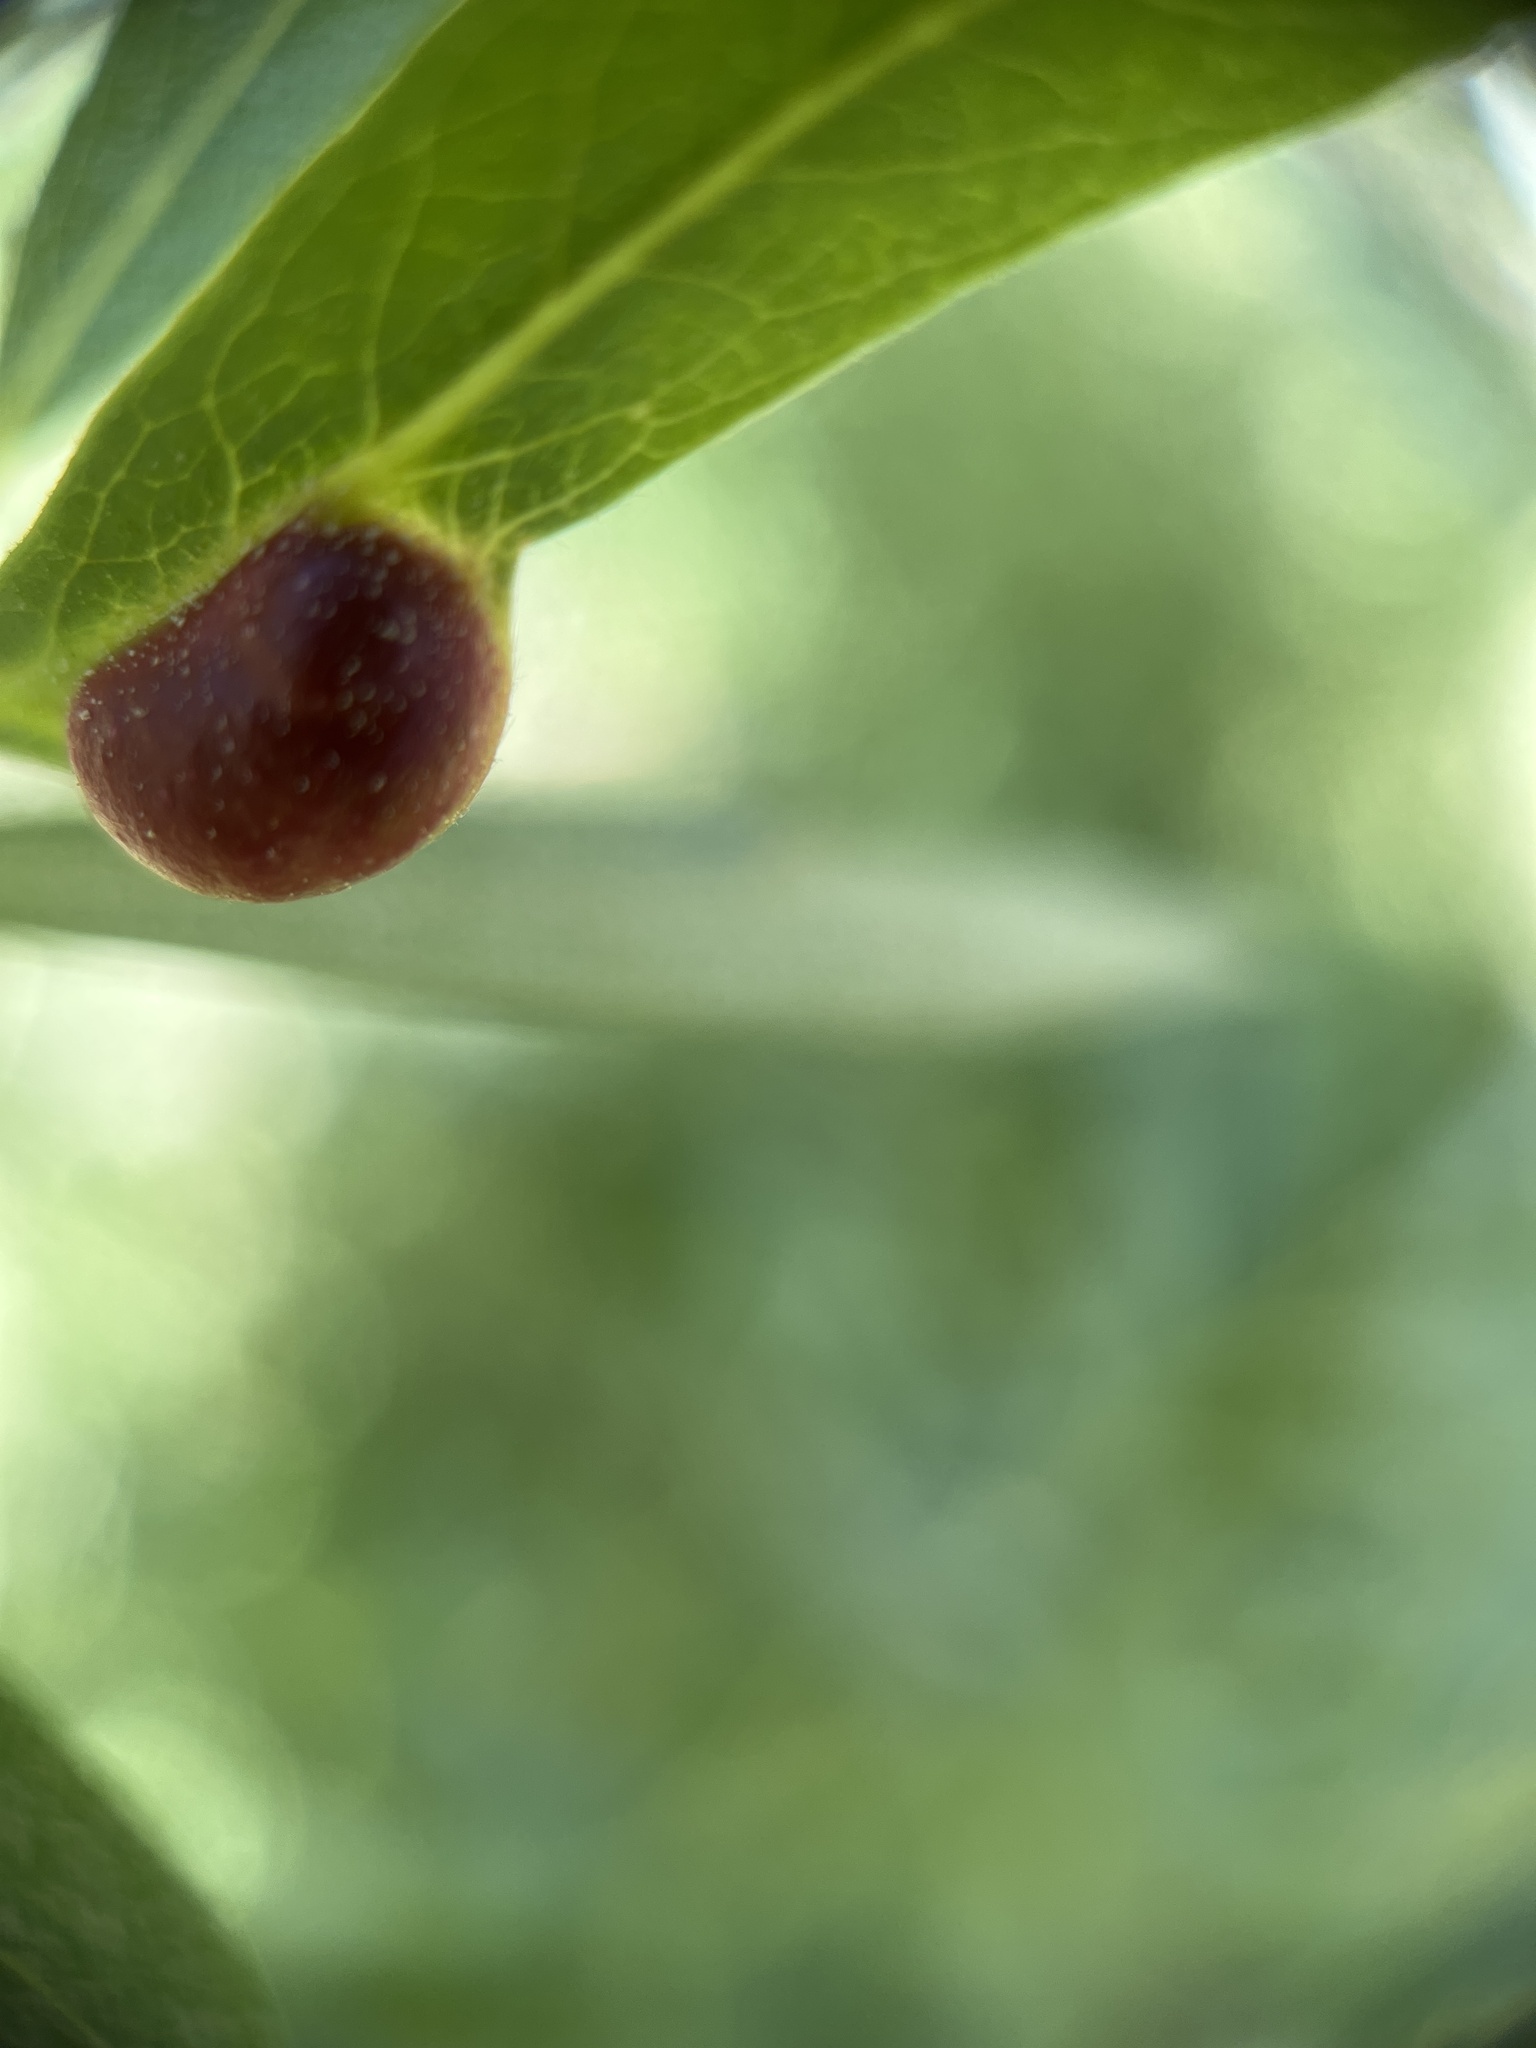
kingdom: Animalia
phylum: Arthropoda
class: Insecta
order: Hymenoptera
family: Tenthredinidae
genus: Euura
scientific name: Euura
